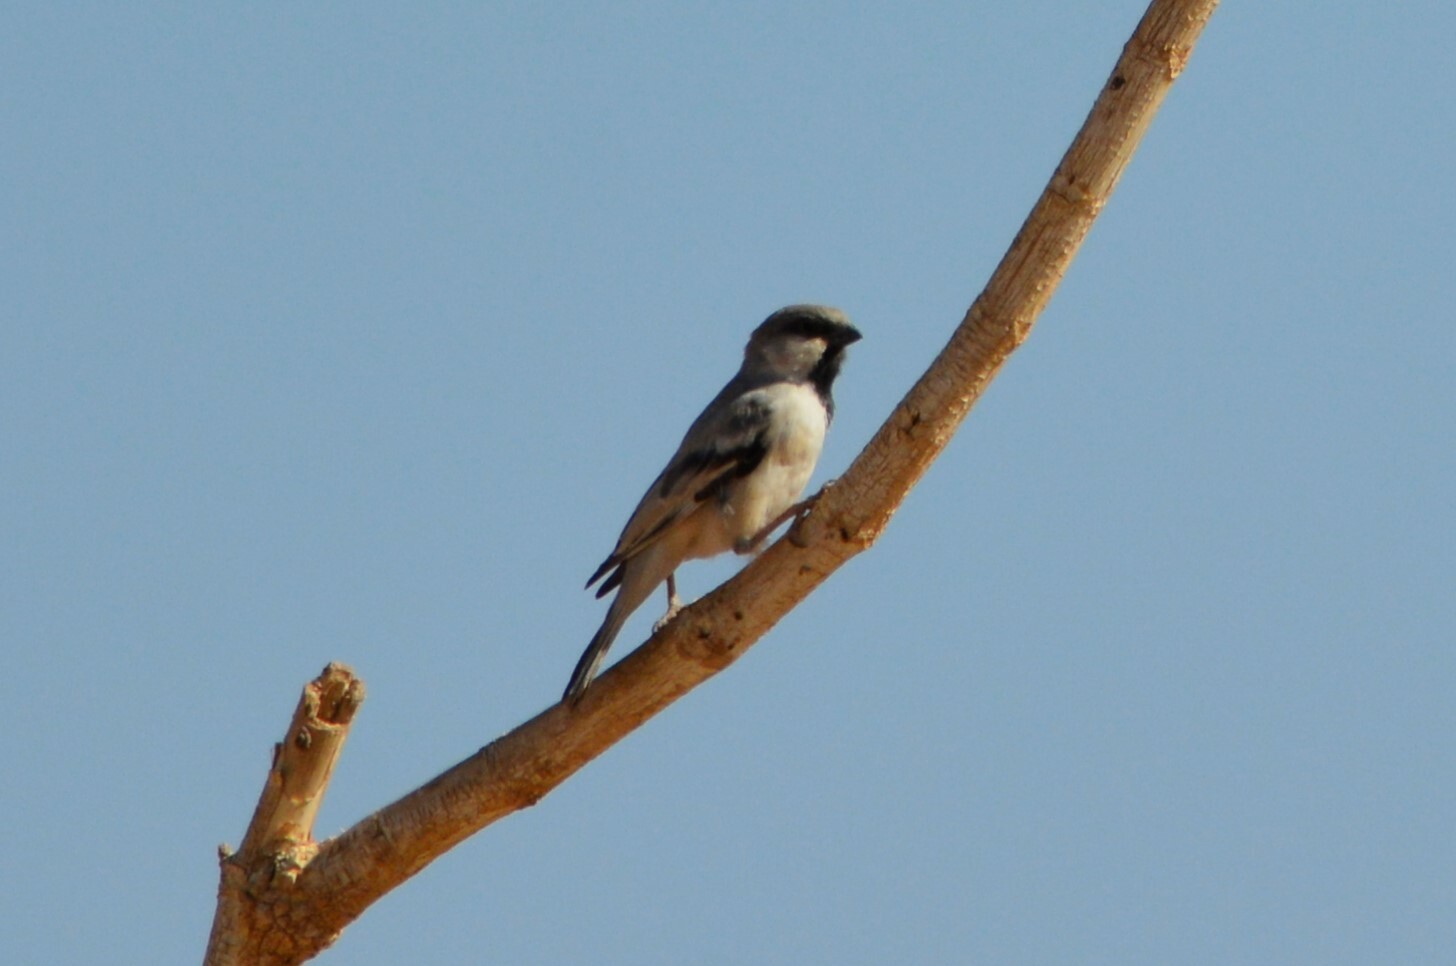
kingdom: Animalia
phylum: Chordata
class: Aves
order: Passeriformes
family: Passeridae
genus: Passer
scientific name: Passer simplex
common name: Desert sparrow
